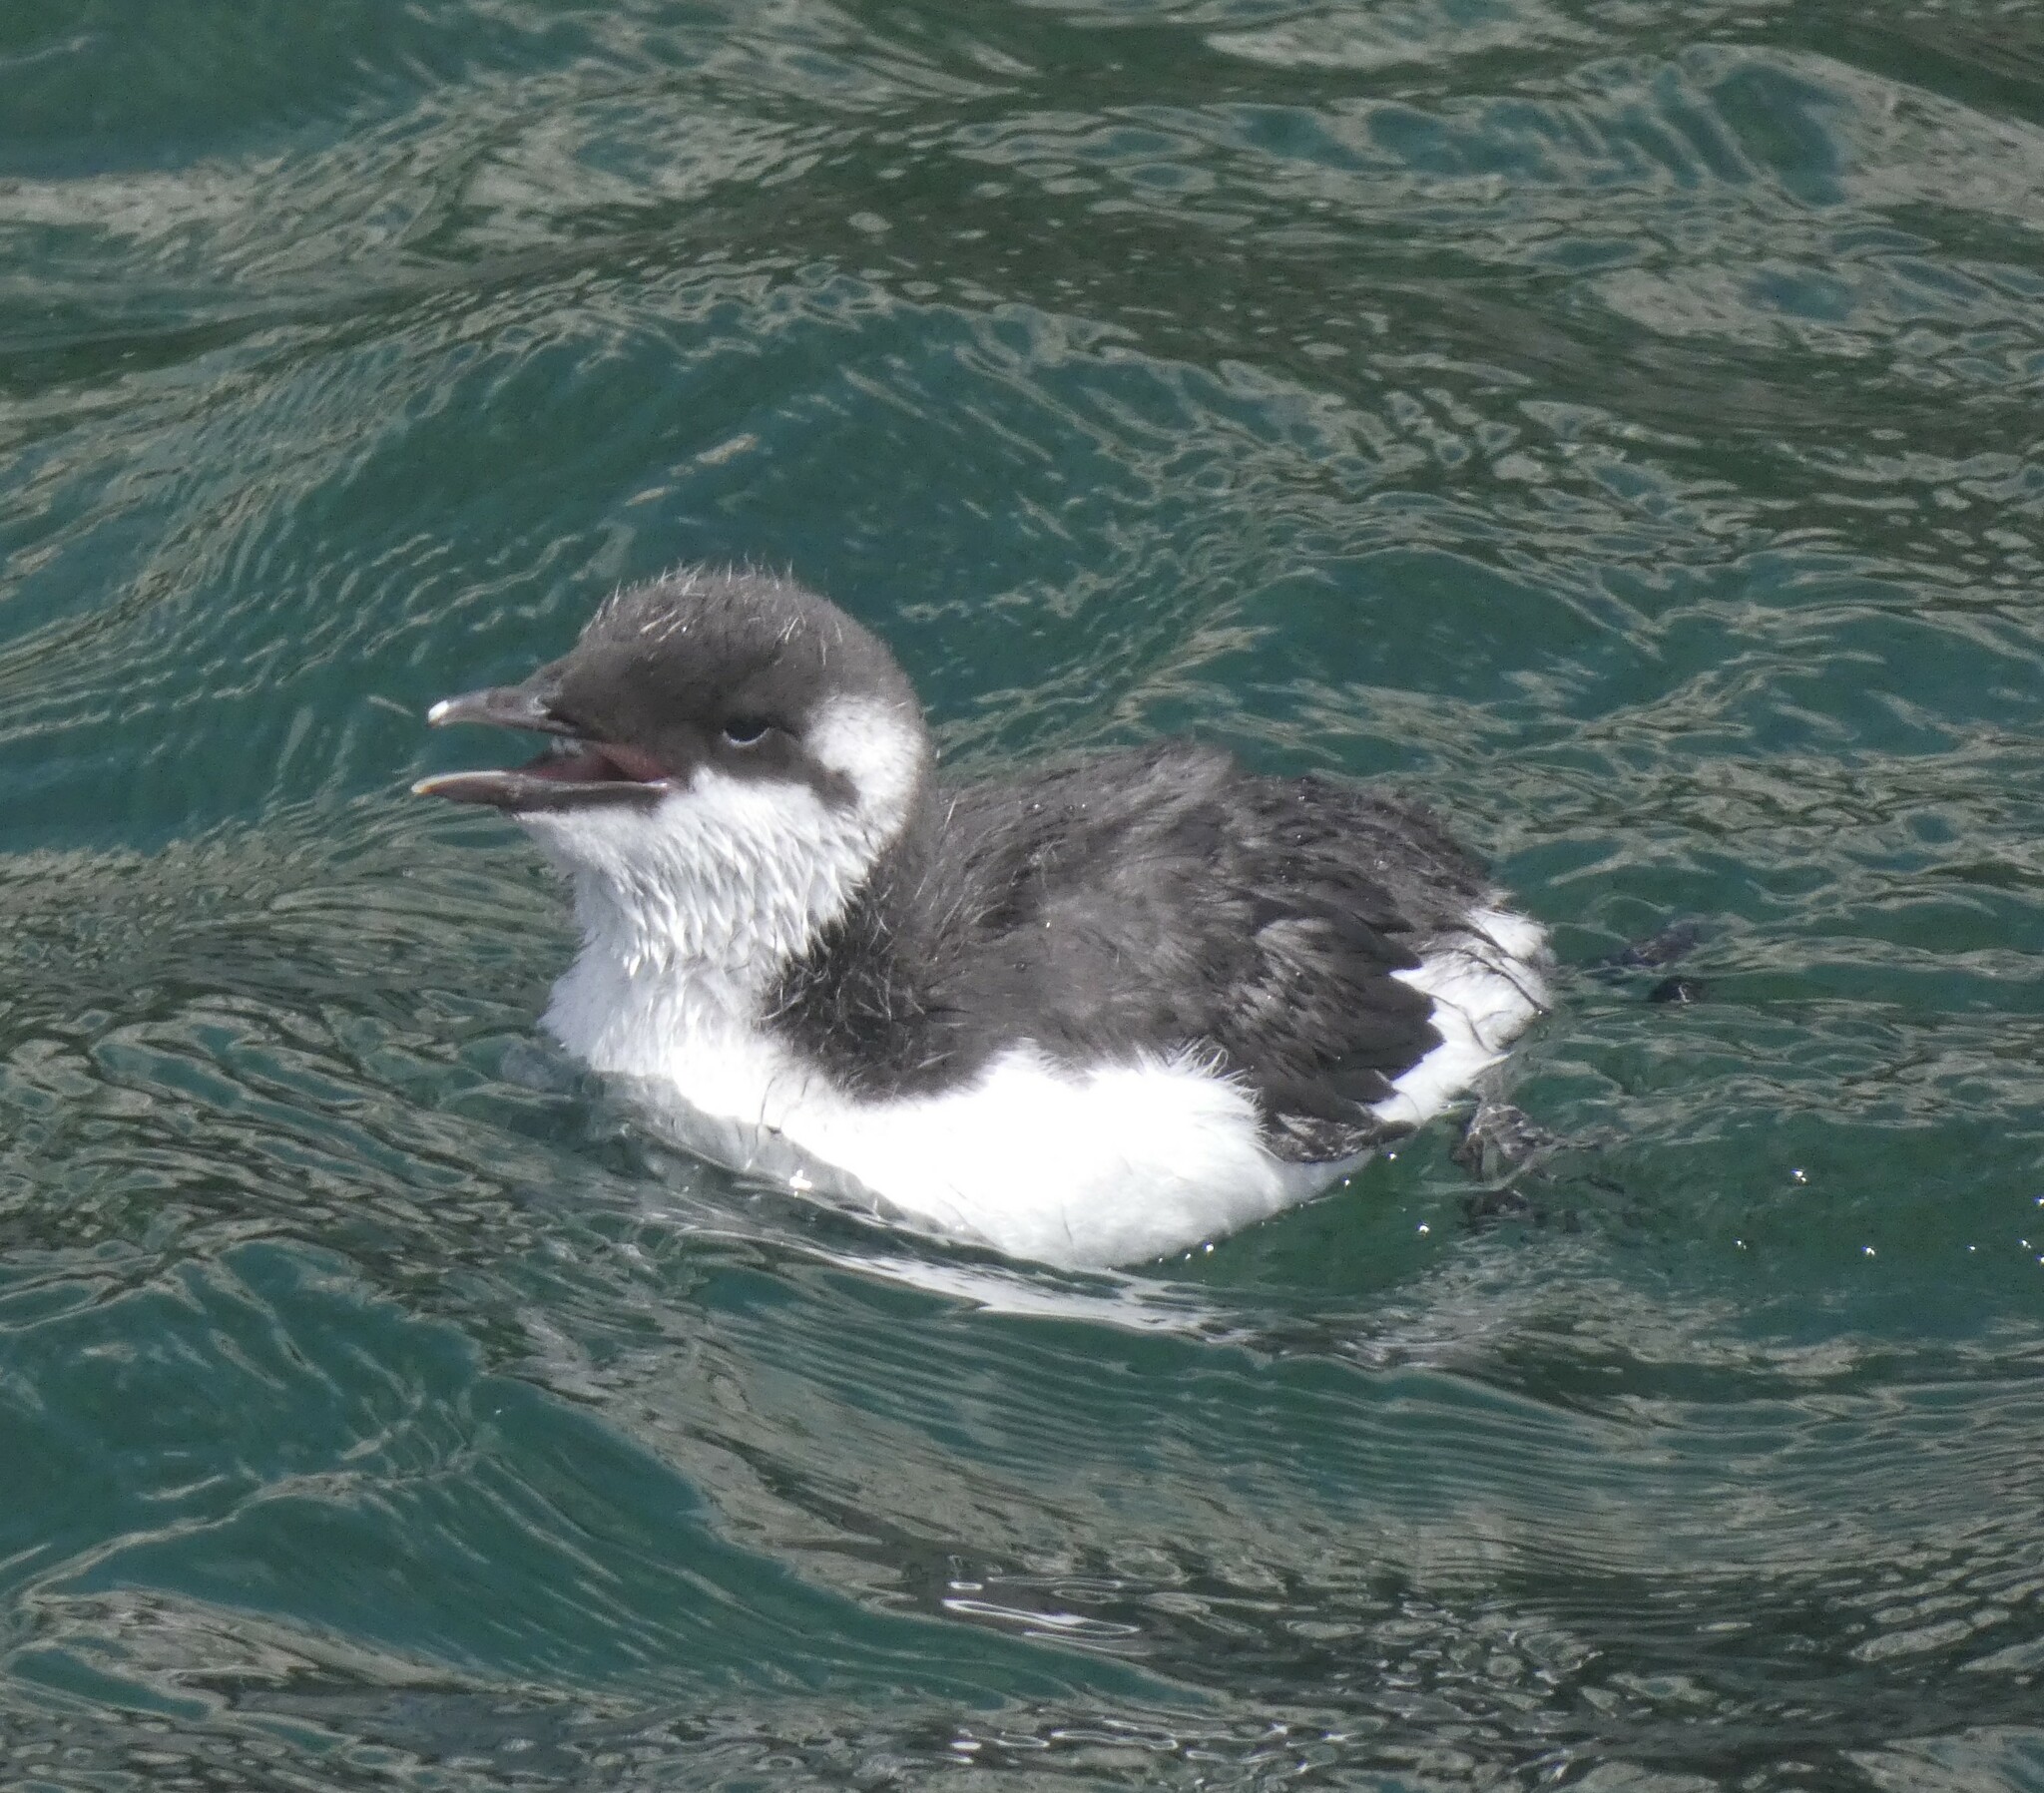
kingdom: Animalia
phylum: Chordata
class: Aves
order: Charadriiformes
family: Alcidae
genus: Uria
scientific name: Uria aalge
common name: Common murre
